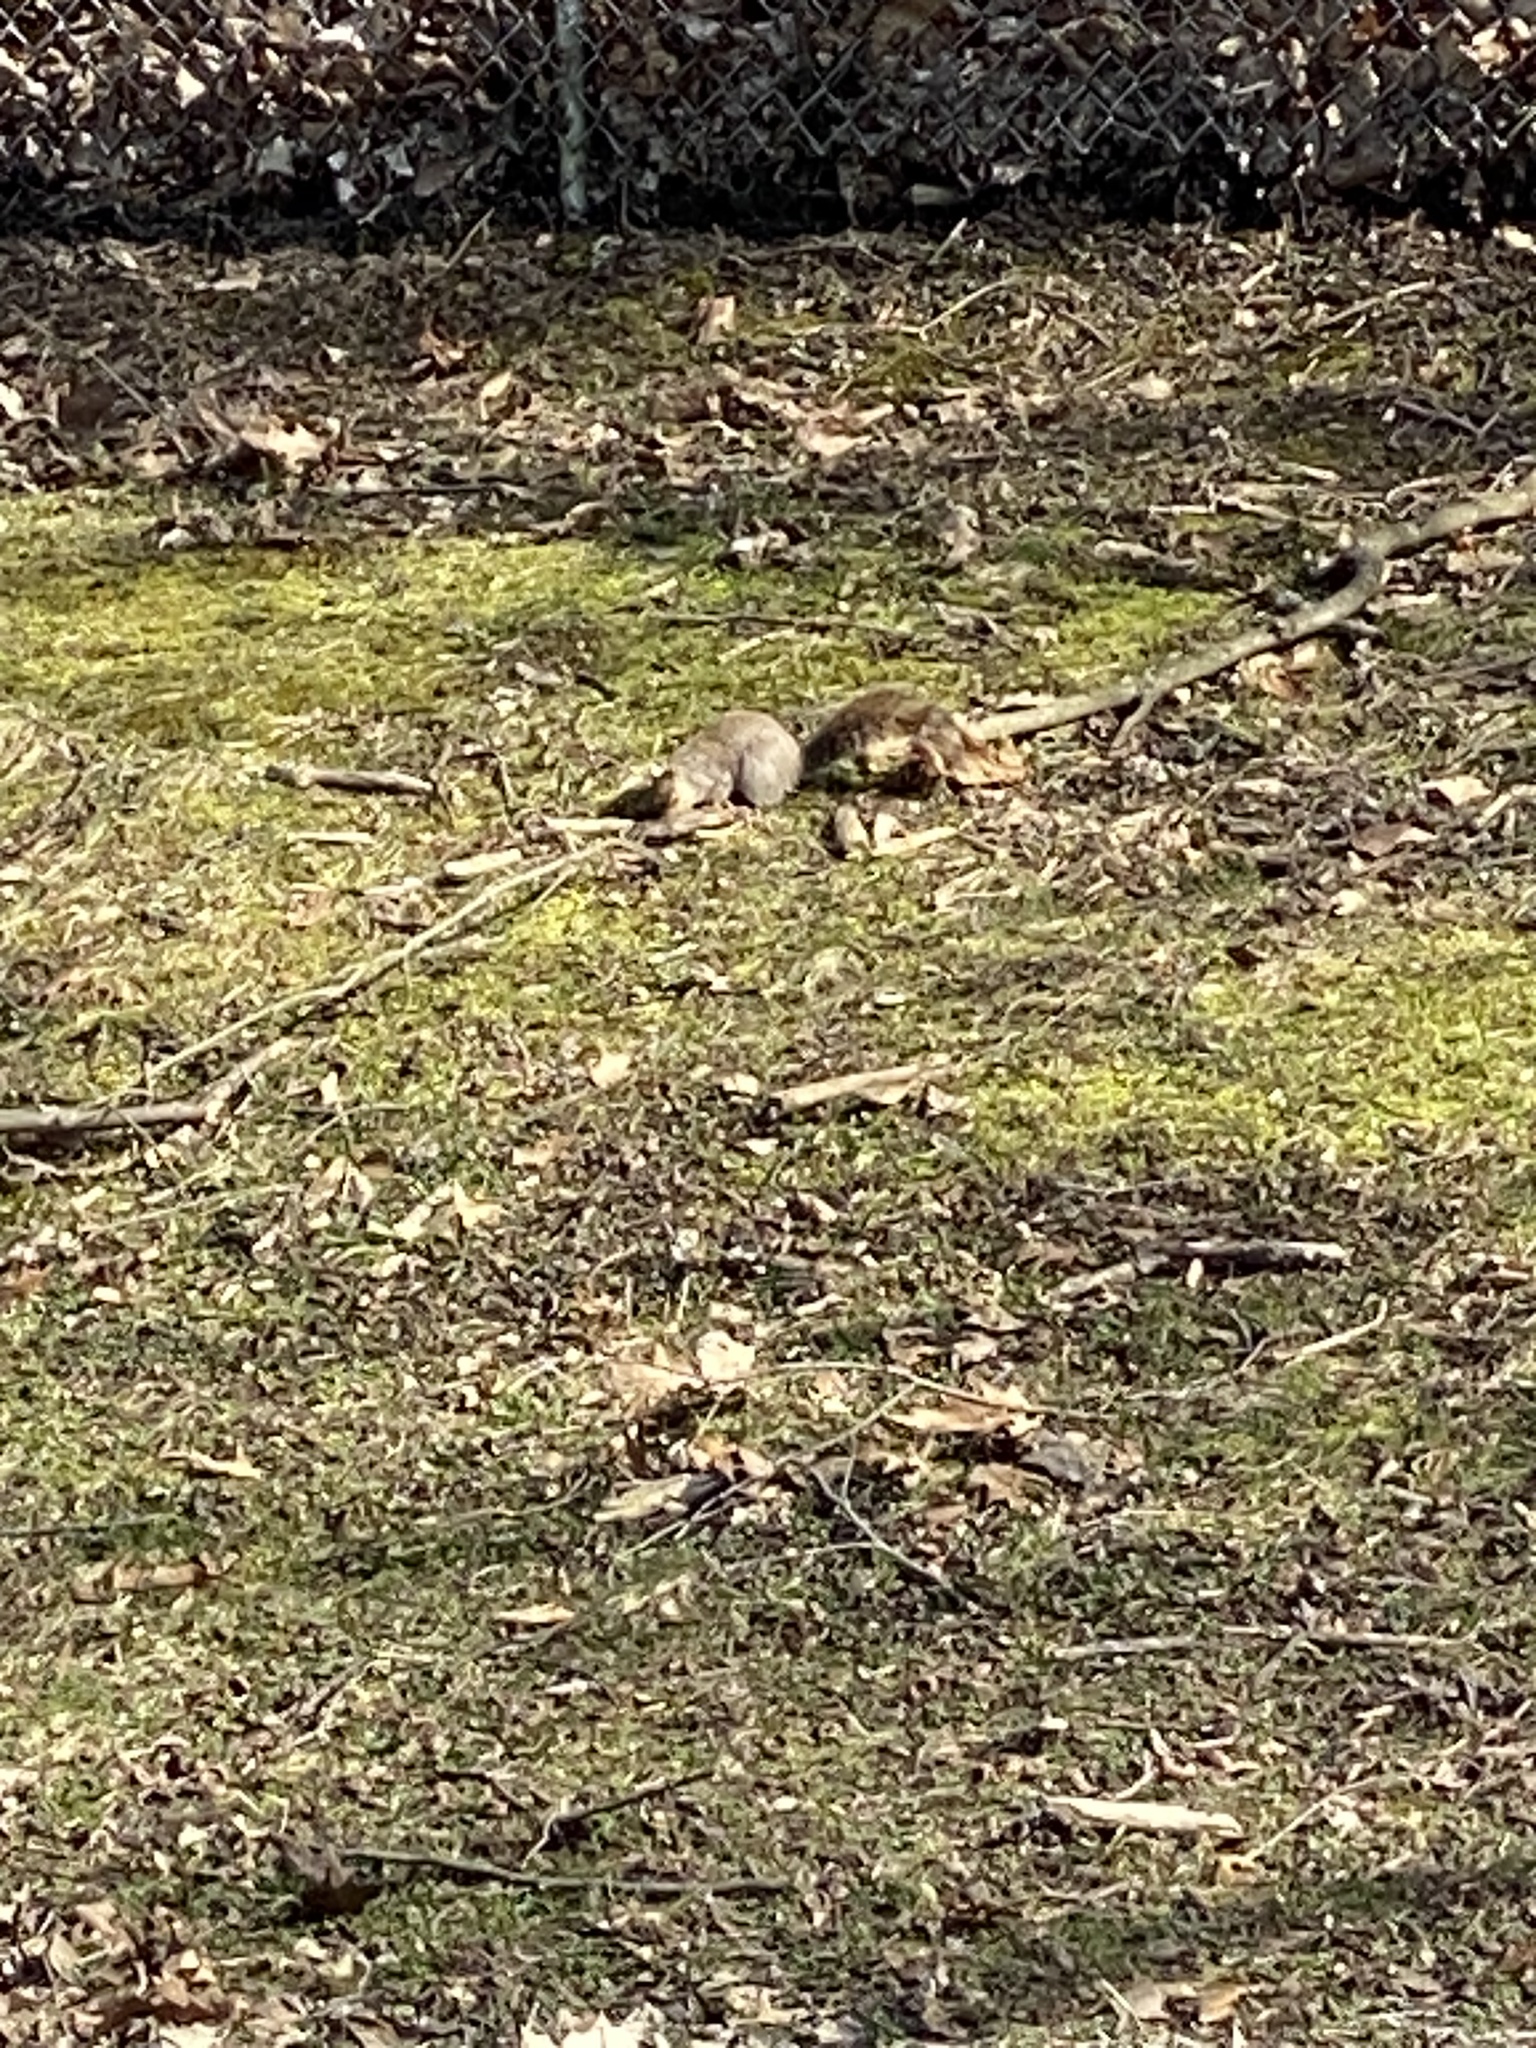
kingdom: Animalia
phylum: Chordata
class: Mammalia
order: Rodentia
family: Sciuridae
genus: Sciurus
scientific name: Sciurus carolinensis
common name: Eastern gray squirrel
